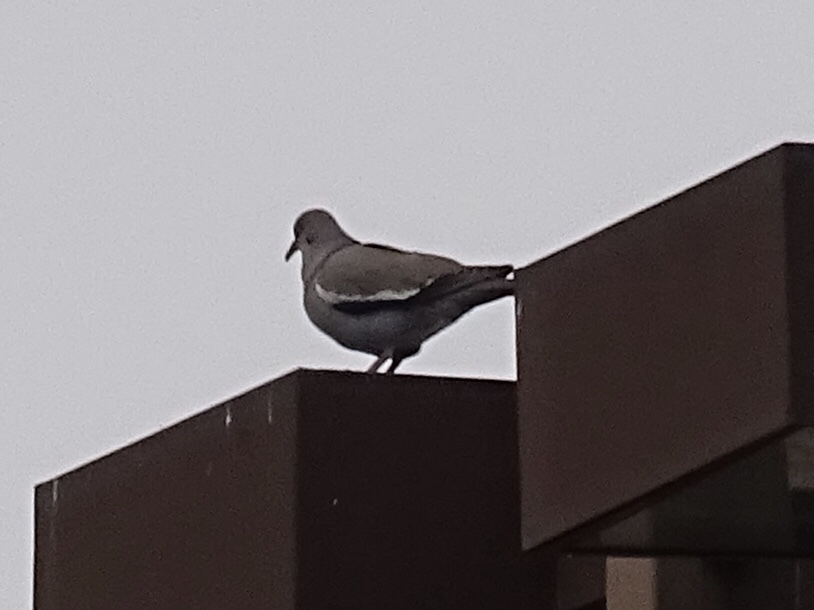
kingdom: Animalia
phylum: Chordata
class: Aves
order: Columbiformes
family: Columbidae
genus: Zenaida
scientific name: Zenaida asiatica
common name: White-winged dove
